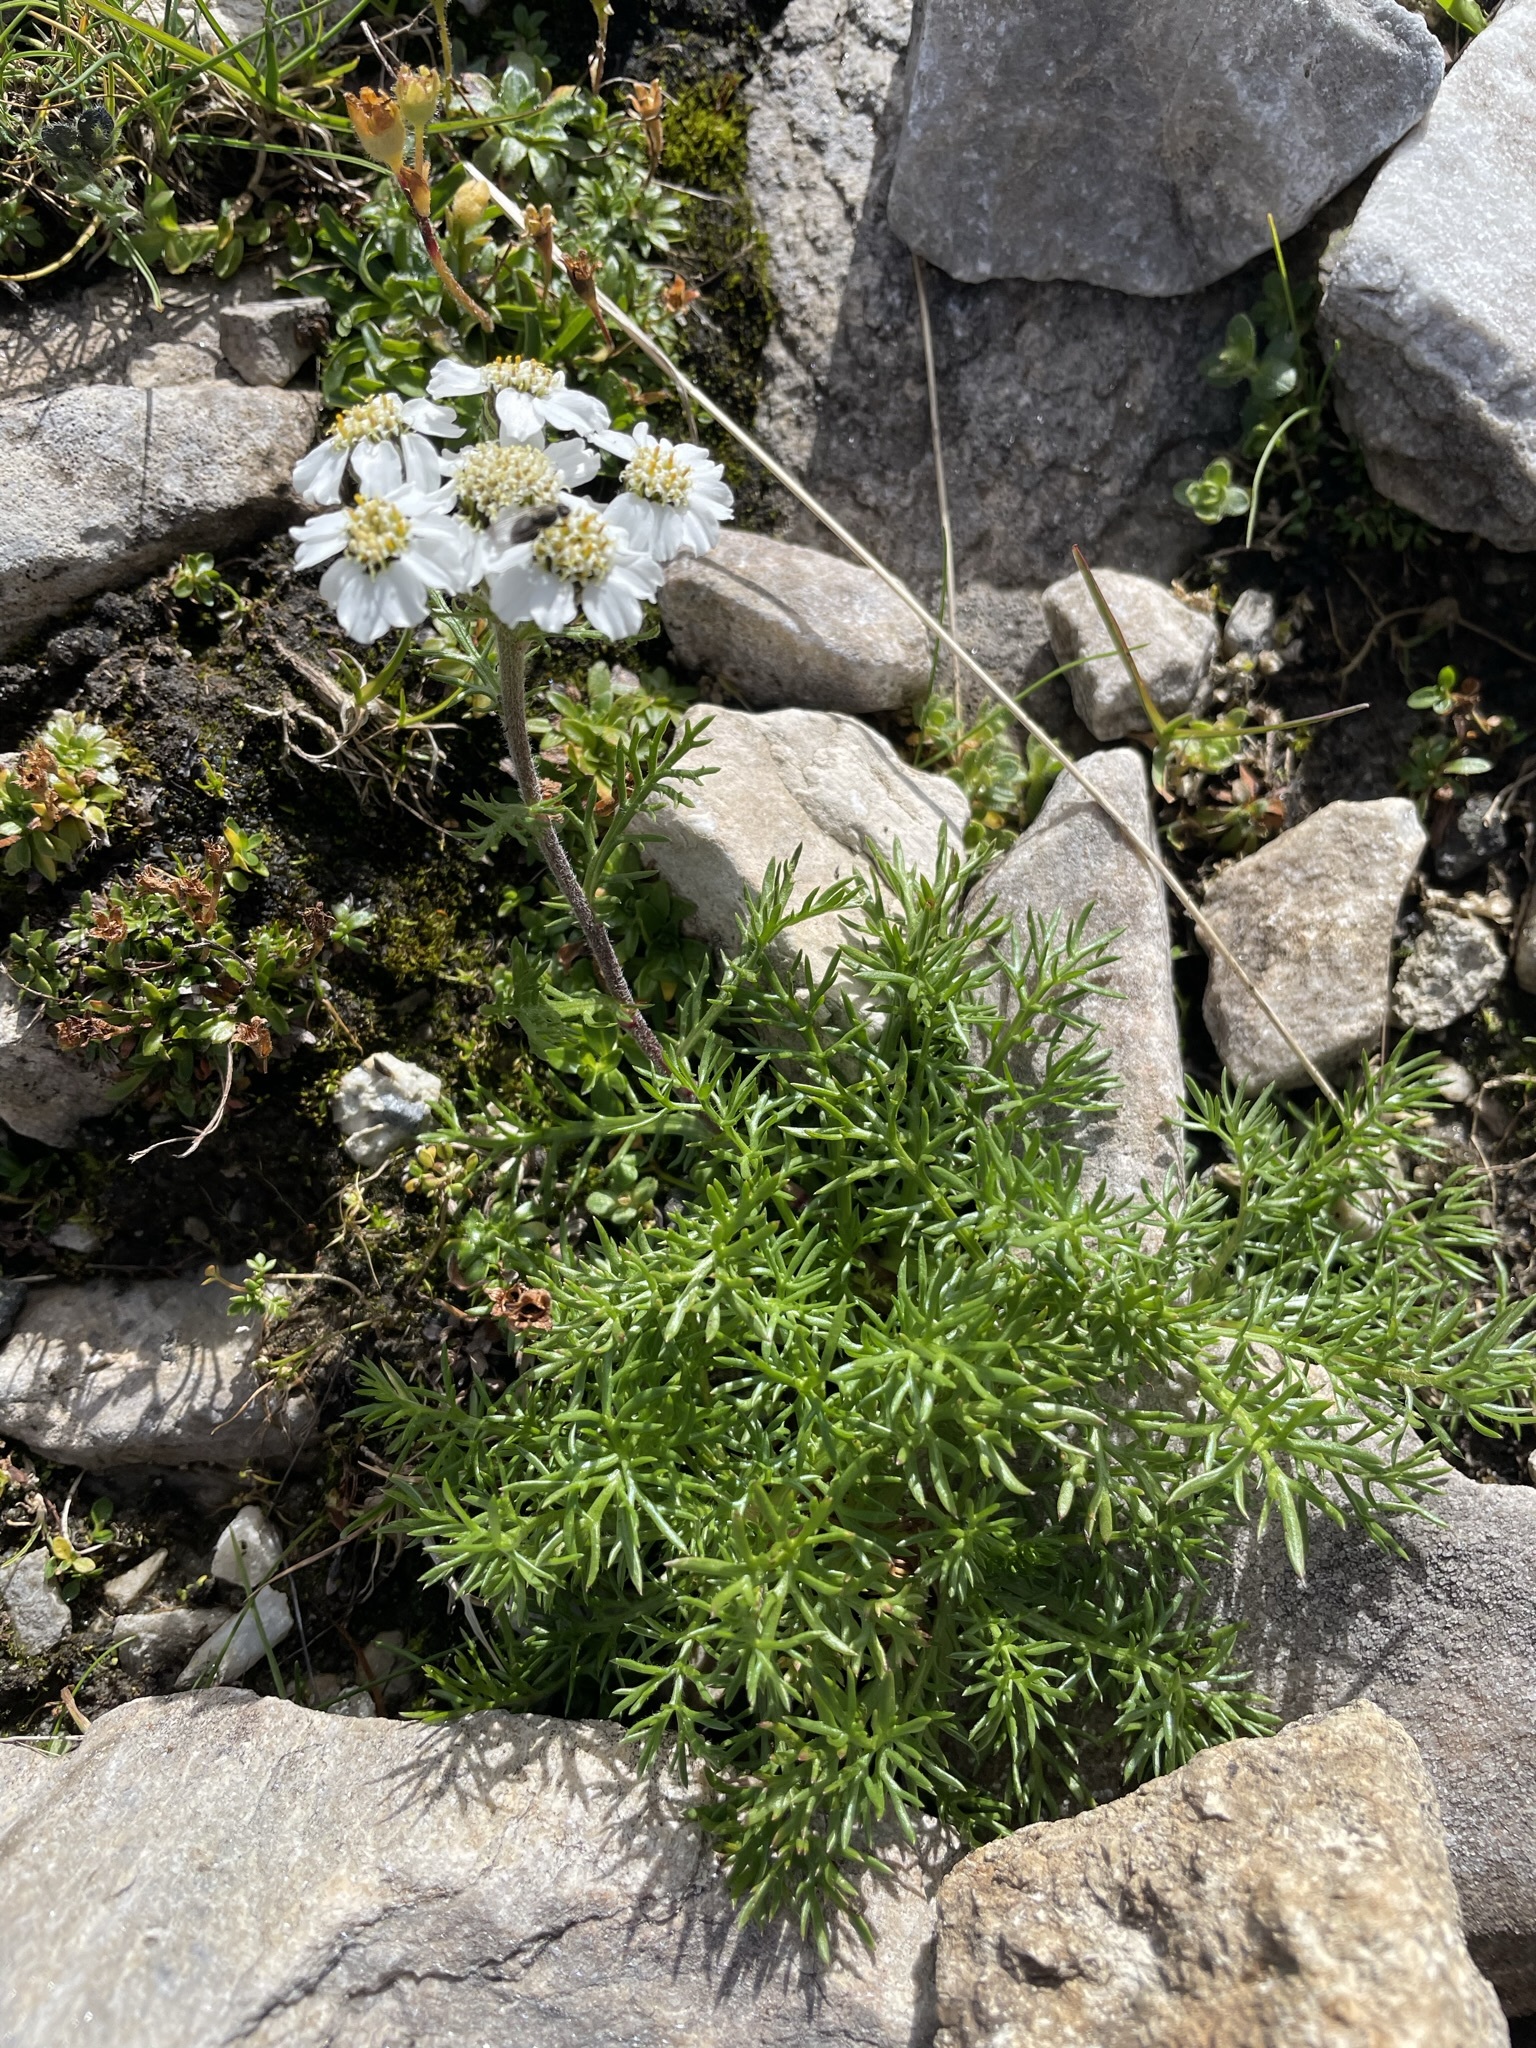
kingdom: Plantae
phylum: Tracheophyta
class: Magnoliopsida
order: Asterales
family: Asteraceae
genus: Achillea
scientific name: Achillea atrata
